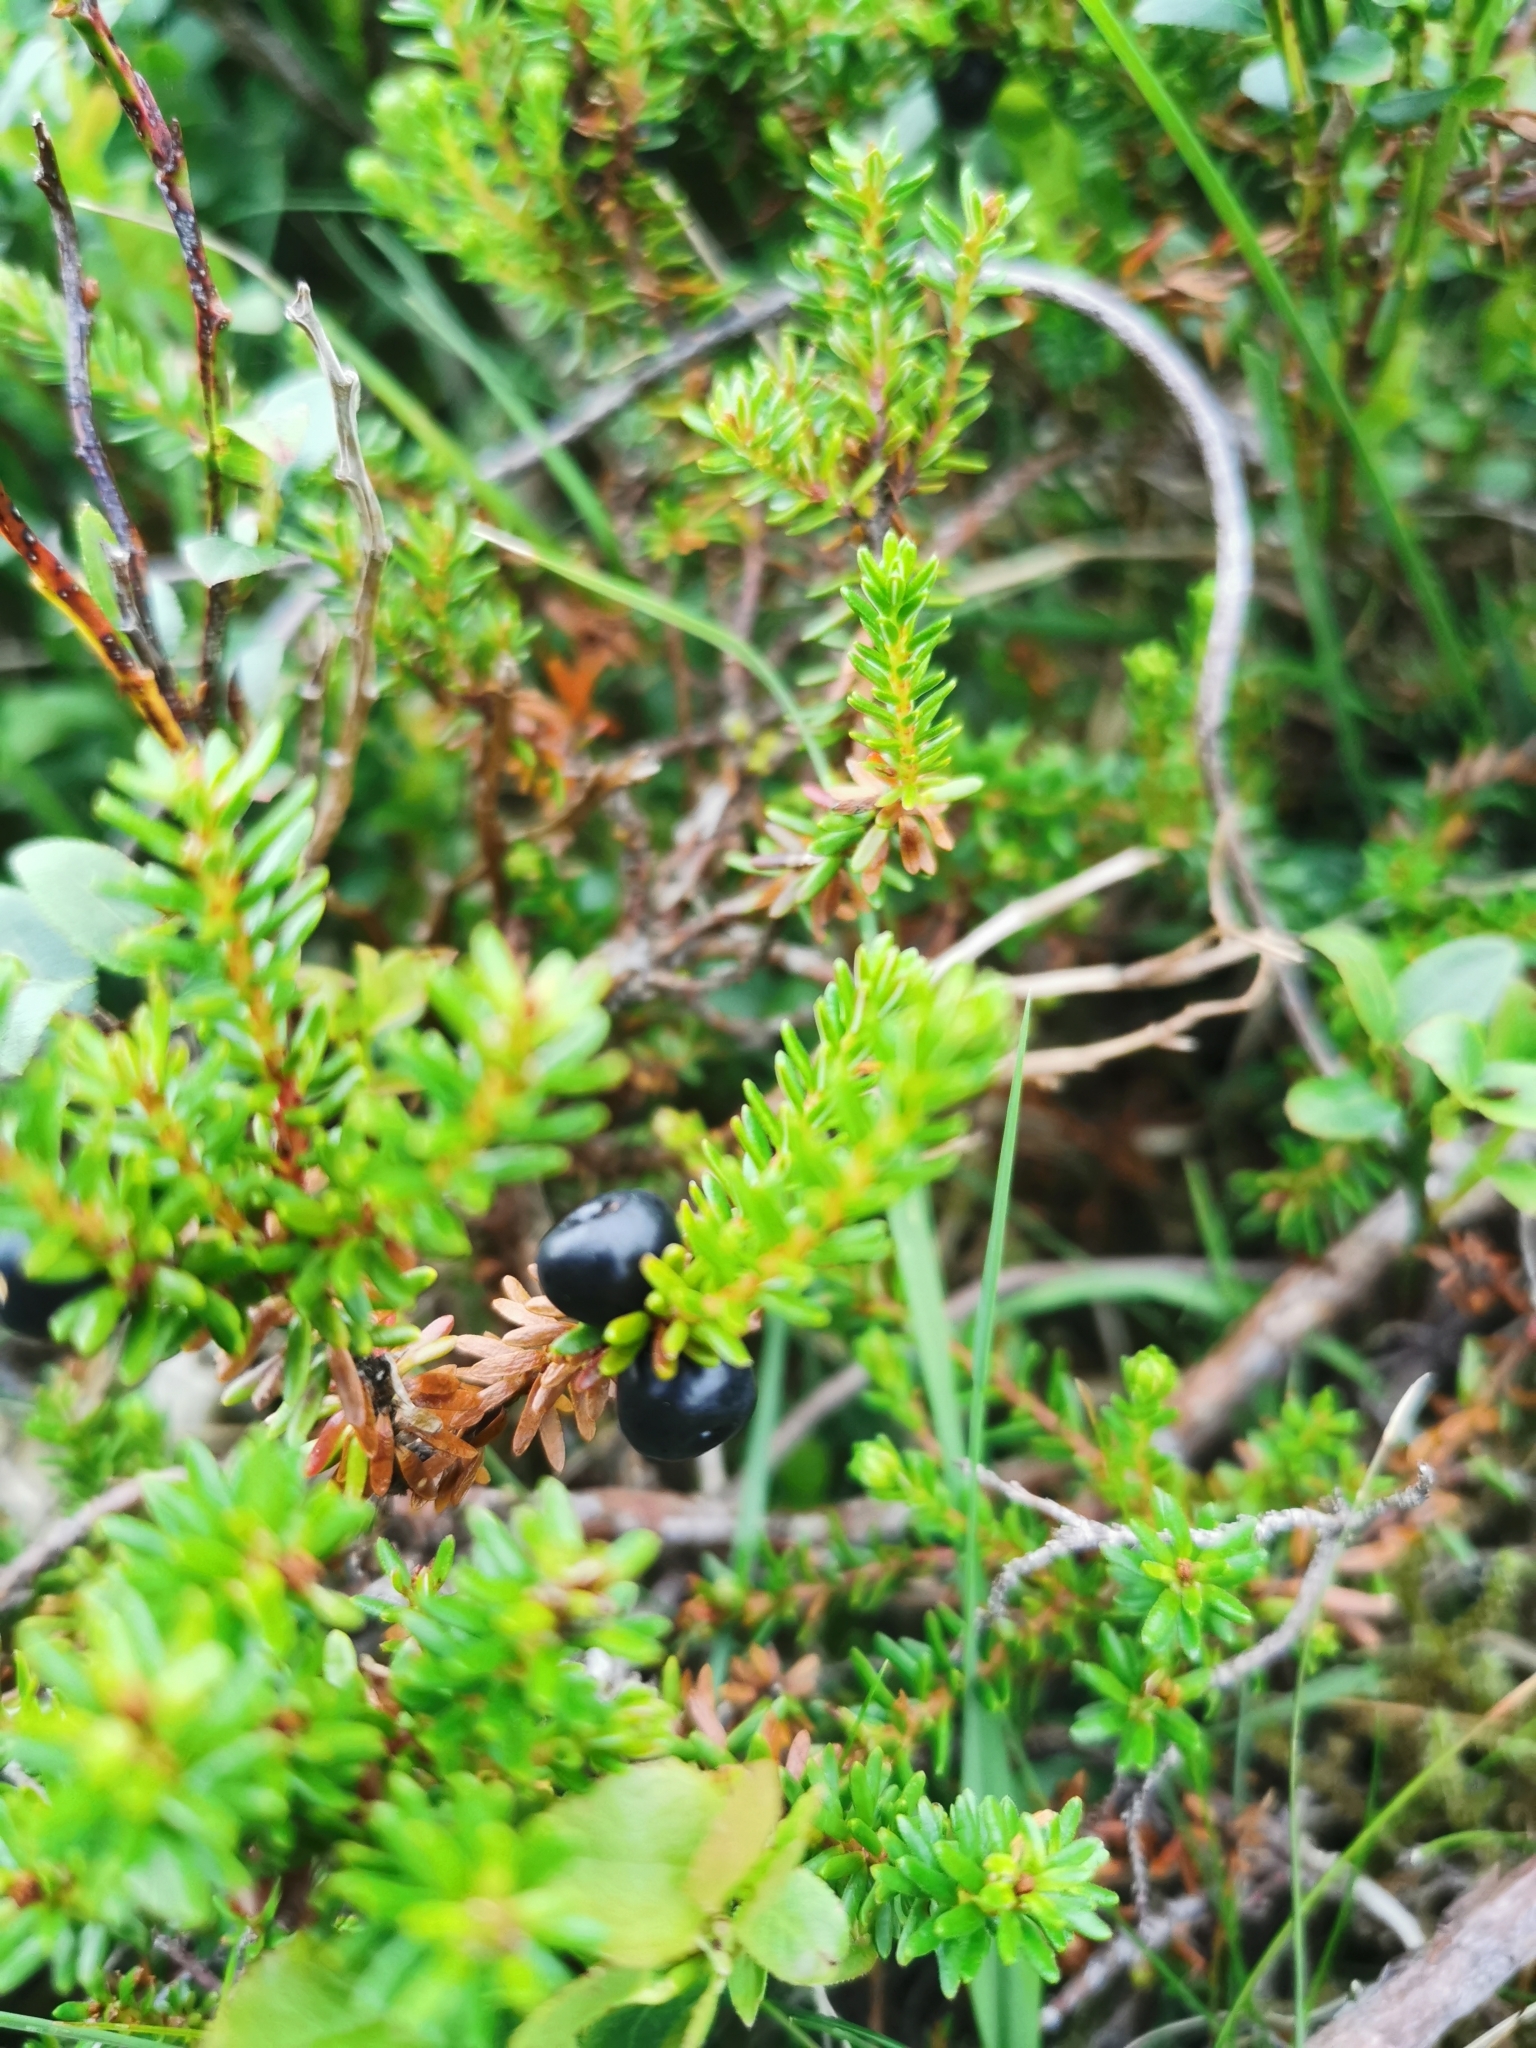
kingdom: Plantae
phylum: Tracheophyta
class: Magnoliopsida
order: Ericales
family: Ericaceae
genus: Empetrum
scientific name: Empetrum nigrum
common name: Black crowberry
